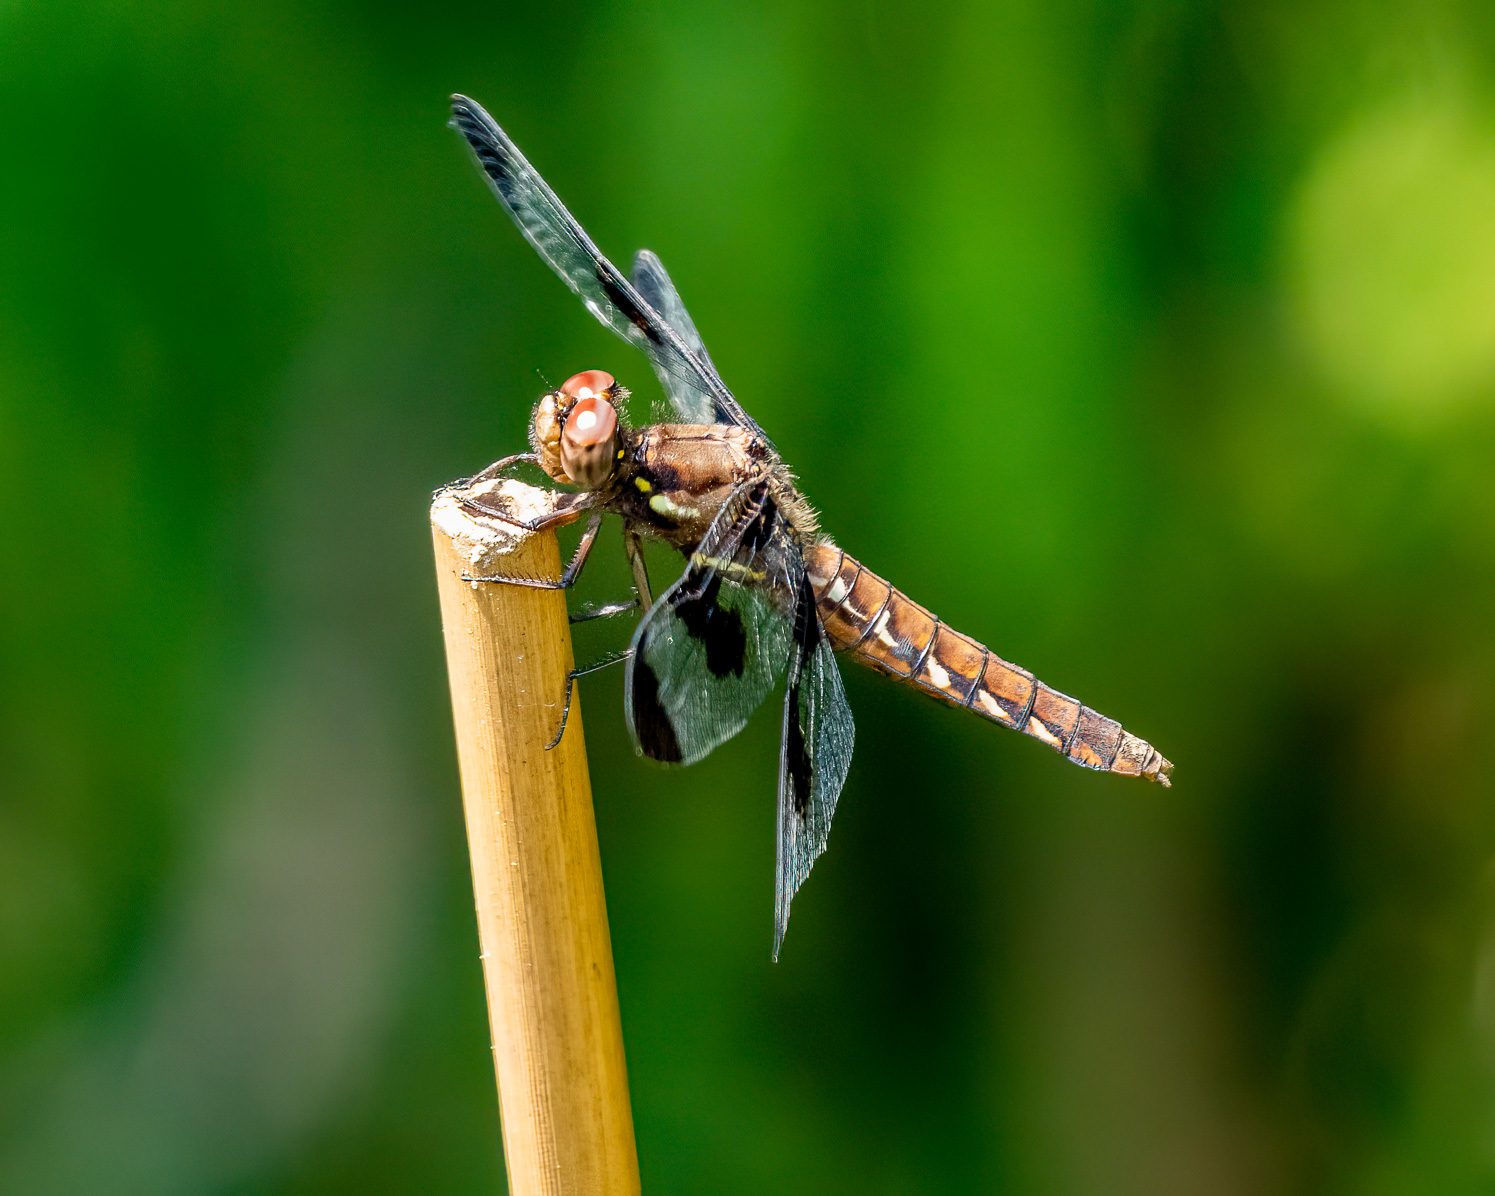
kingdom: Animalia
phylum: Arthropoda
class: Insecta
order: Odonata
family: Libellulidae
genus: Plathemis
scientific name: Plathemis lydia
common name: Common whitetail
